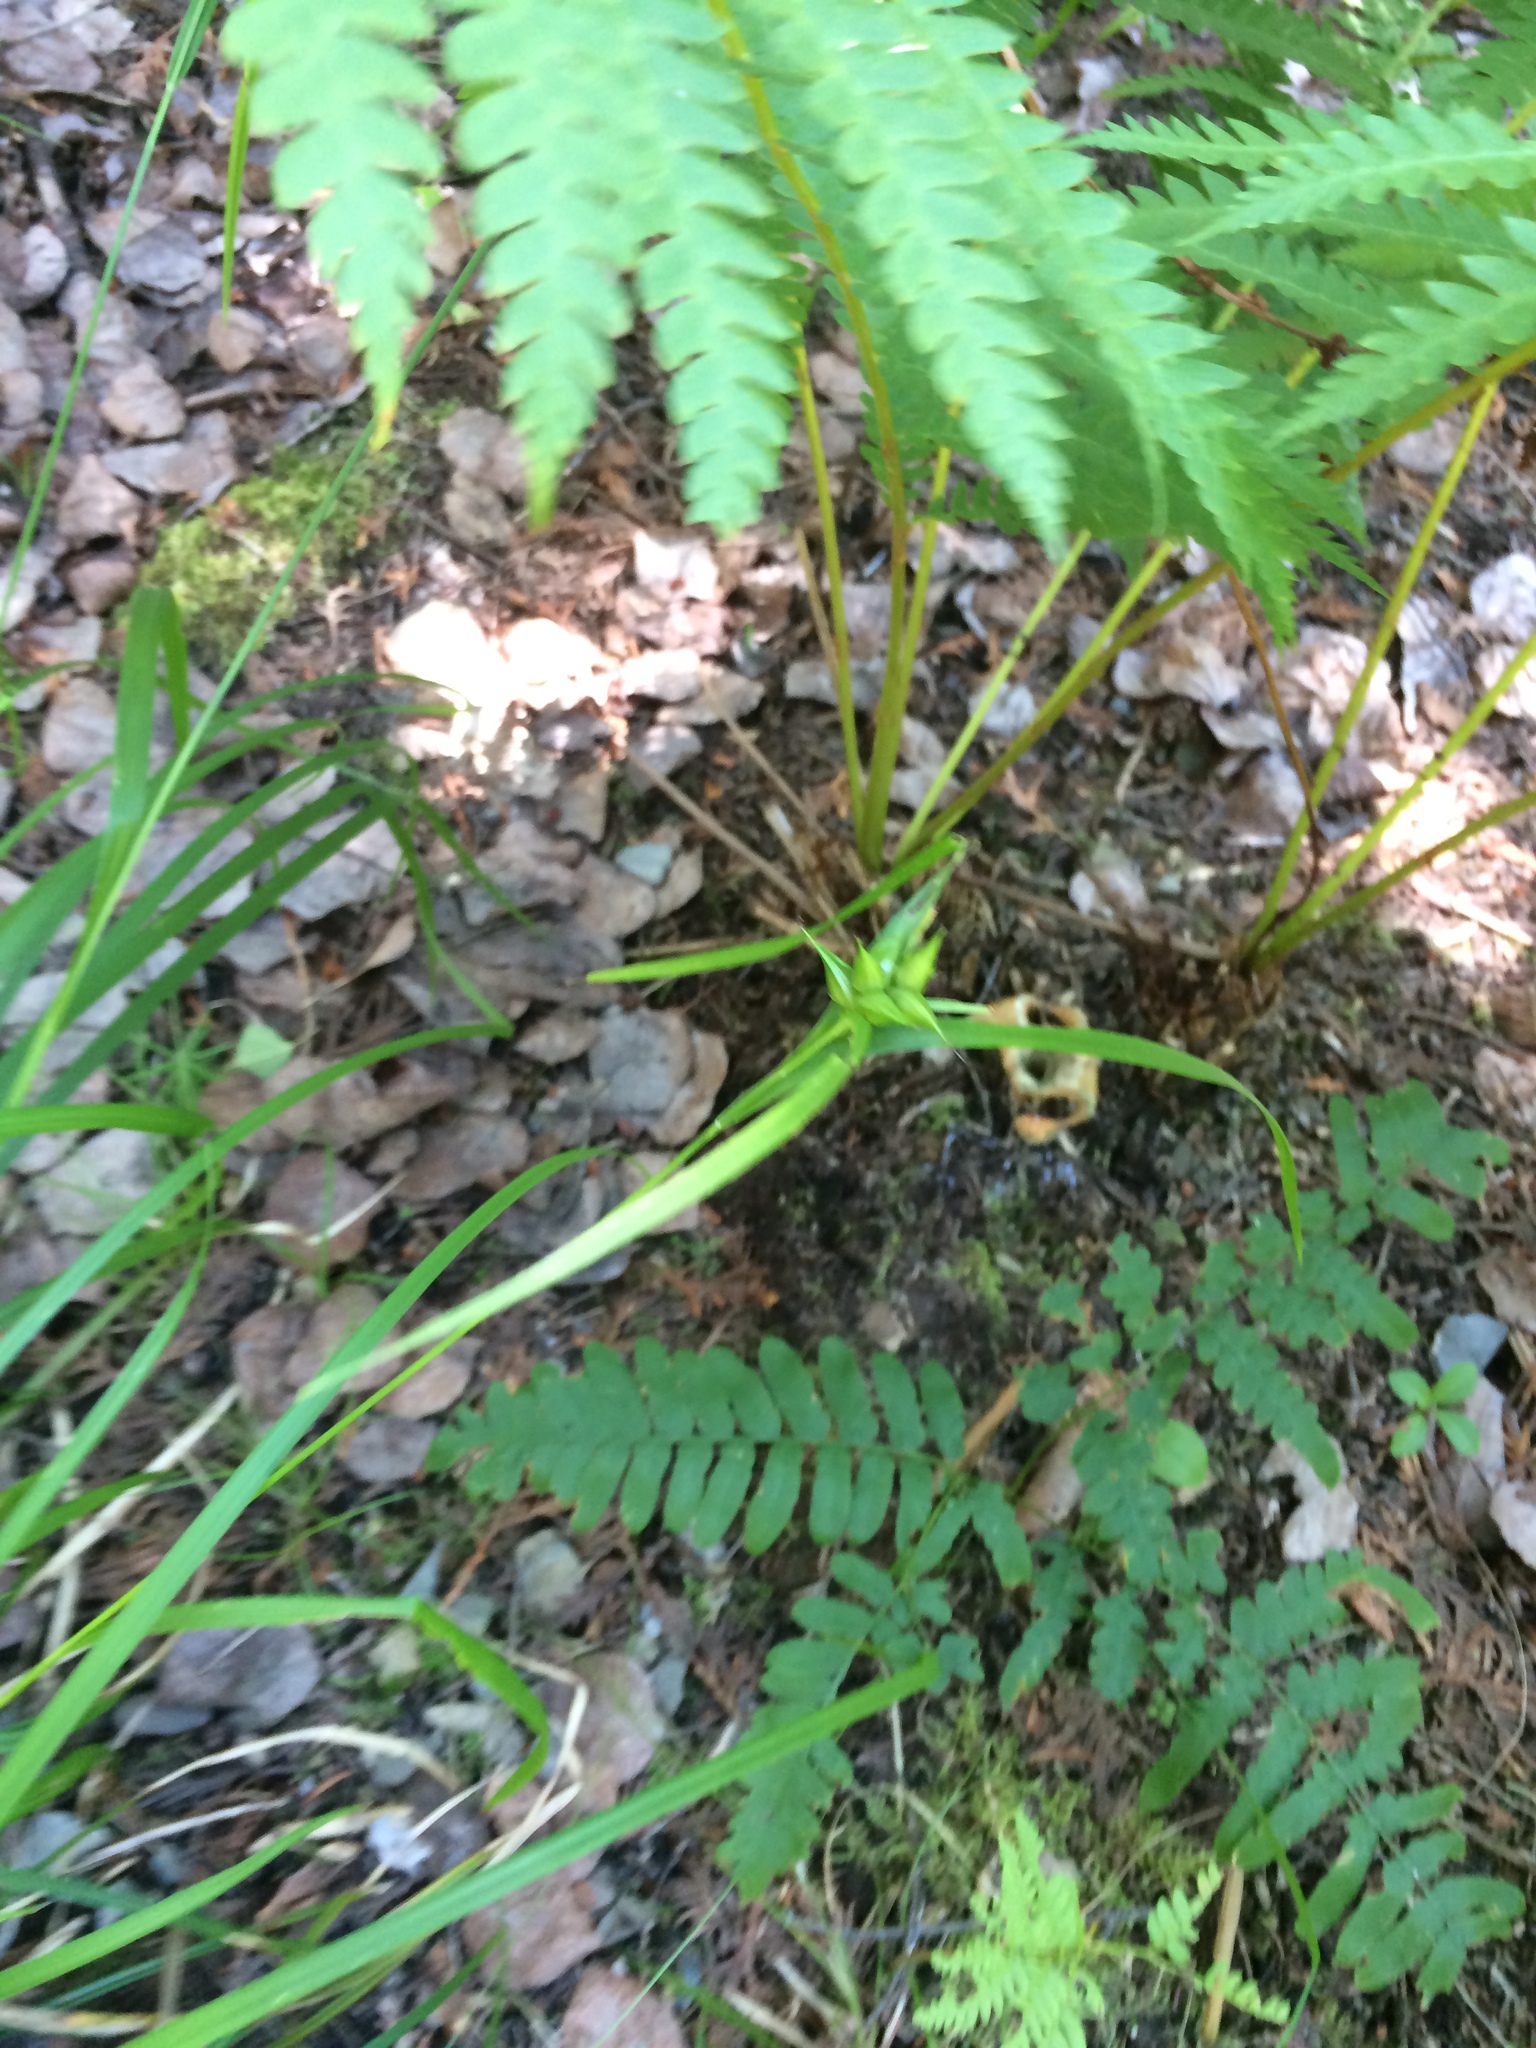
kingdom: Plantae
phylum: Tracheophyta
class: Liliopsida
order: Poales
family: Cyperaceae
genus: Carex
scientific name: Carex intumescens
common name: Greater bladder sedge
